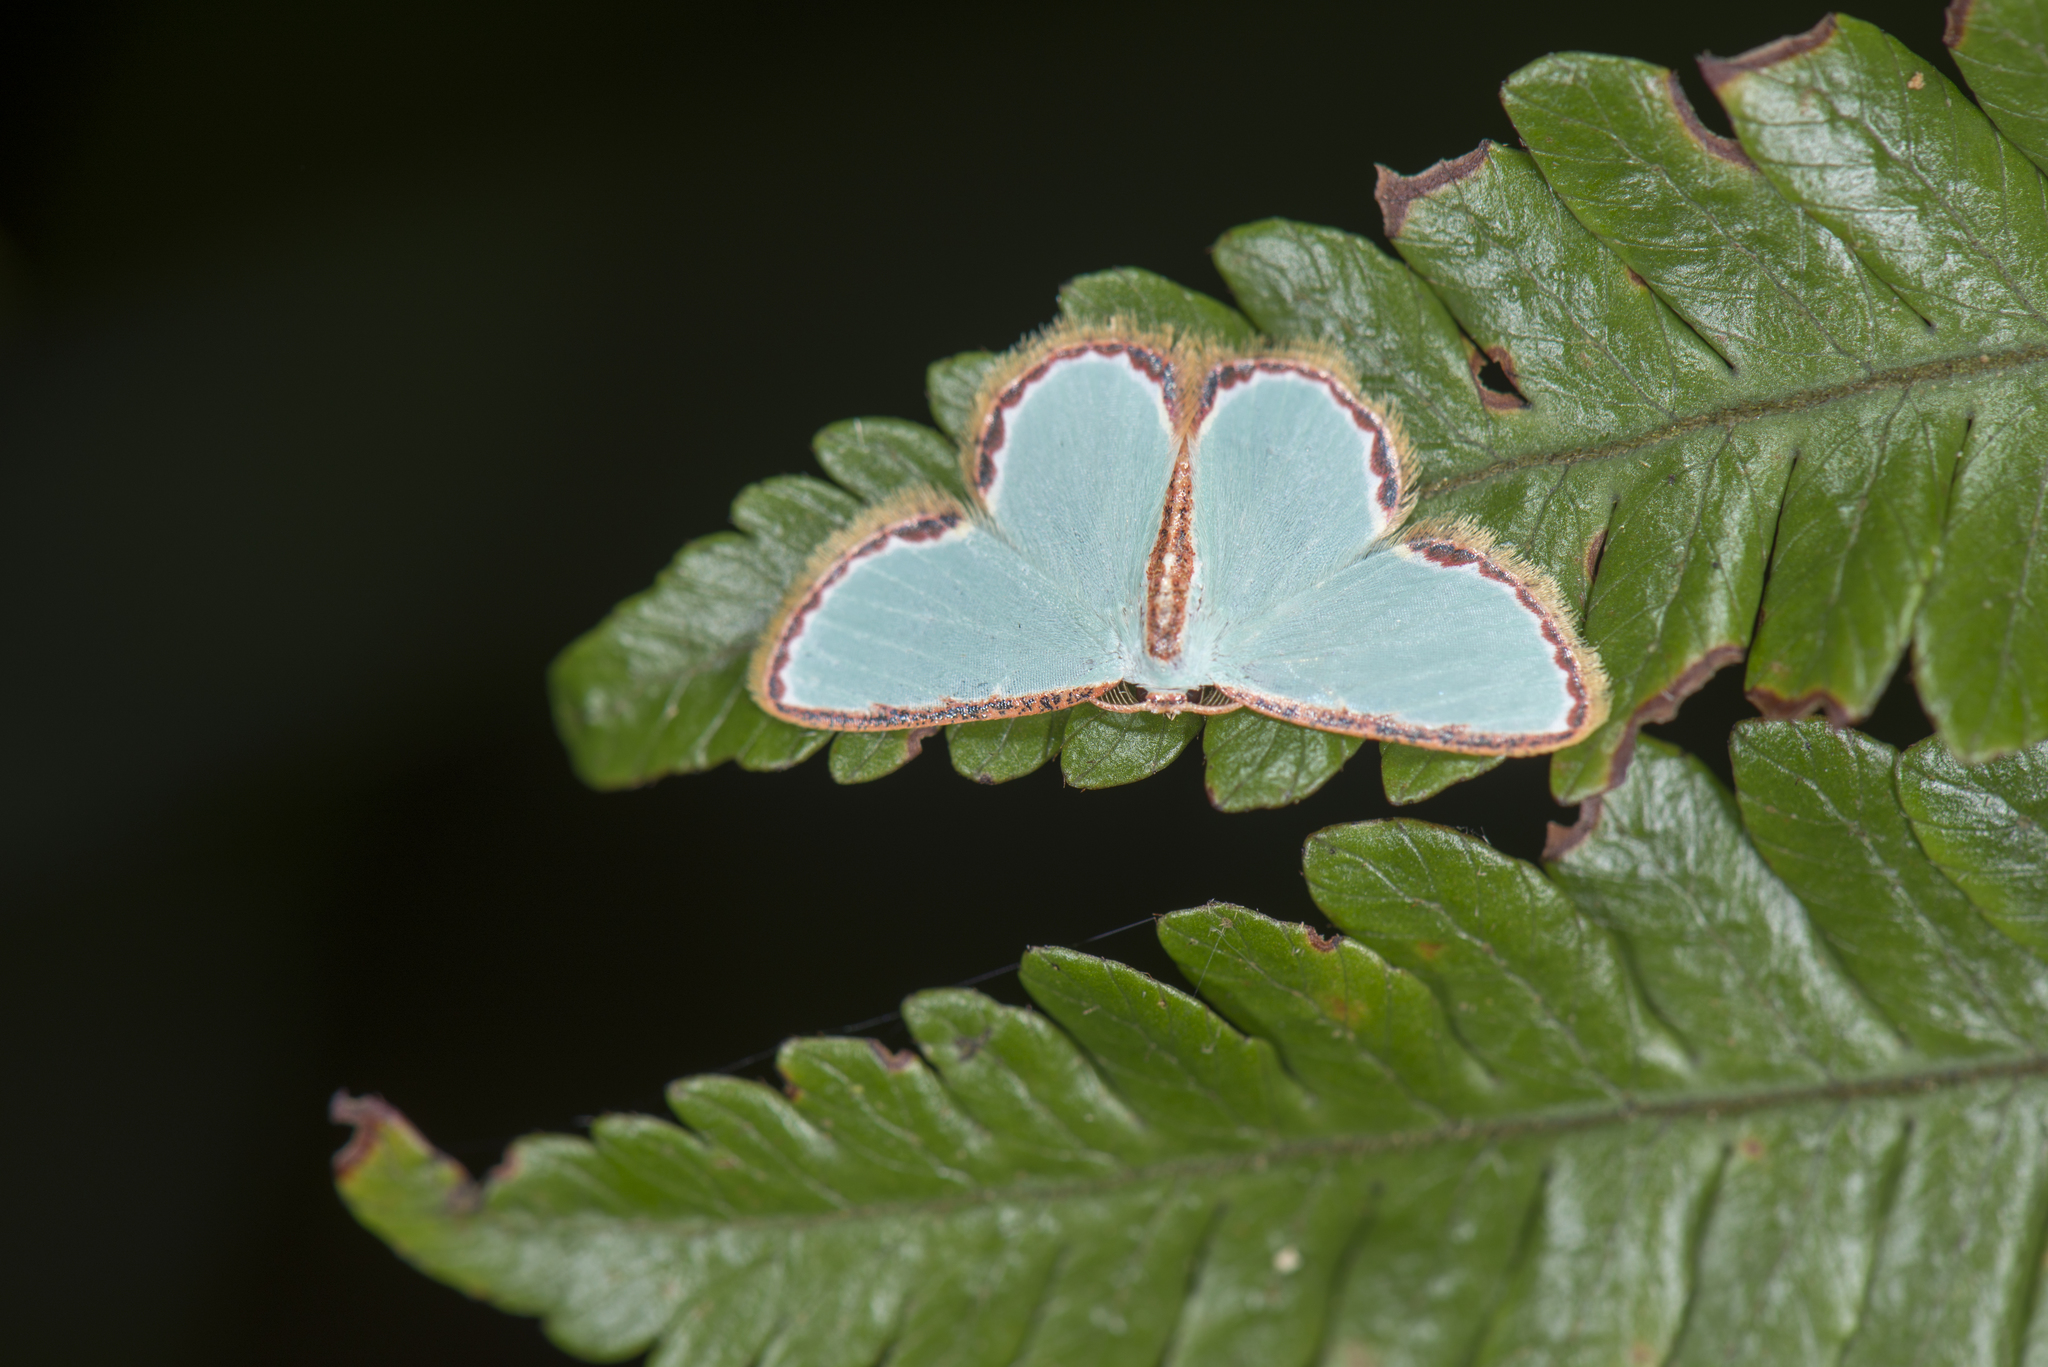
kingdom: Animalia
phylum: Arthropoda
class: Insecta
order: Lepidoptera
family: Geometridae
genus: Comostola
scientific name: Comostola pyrrhogona
